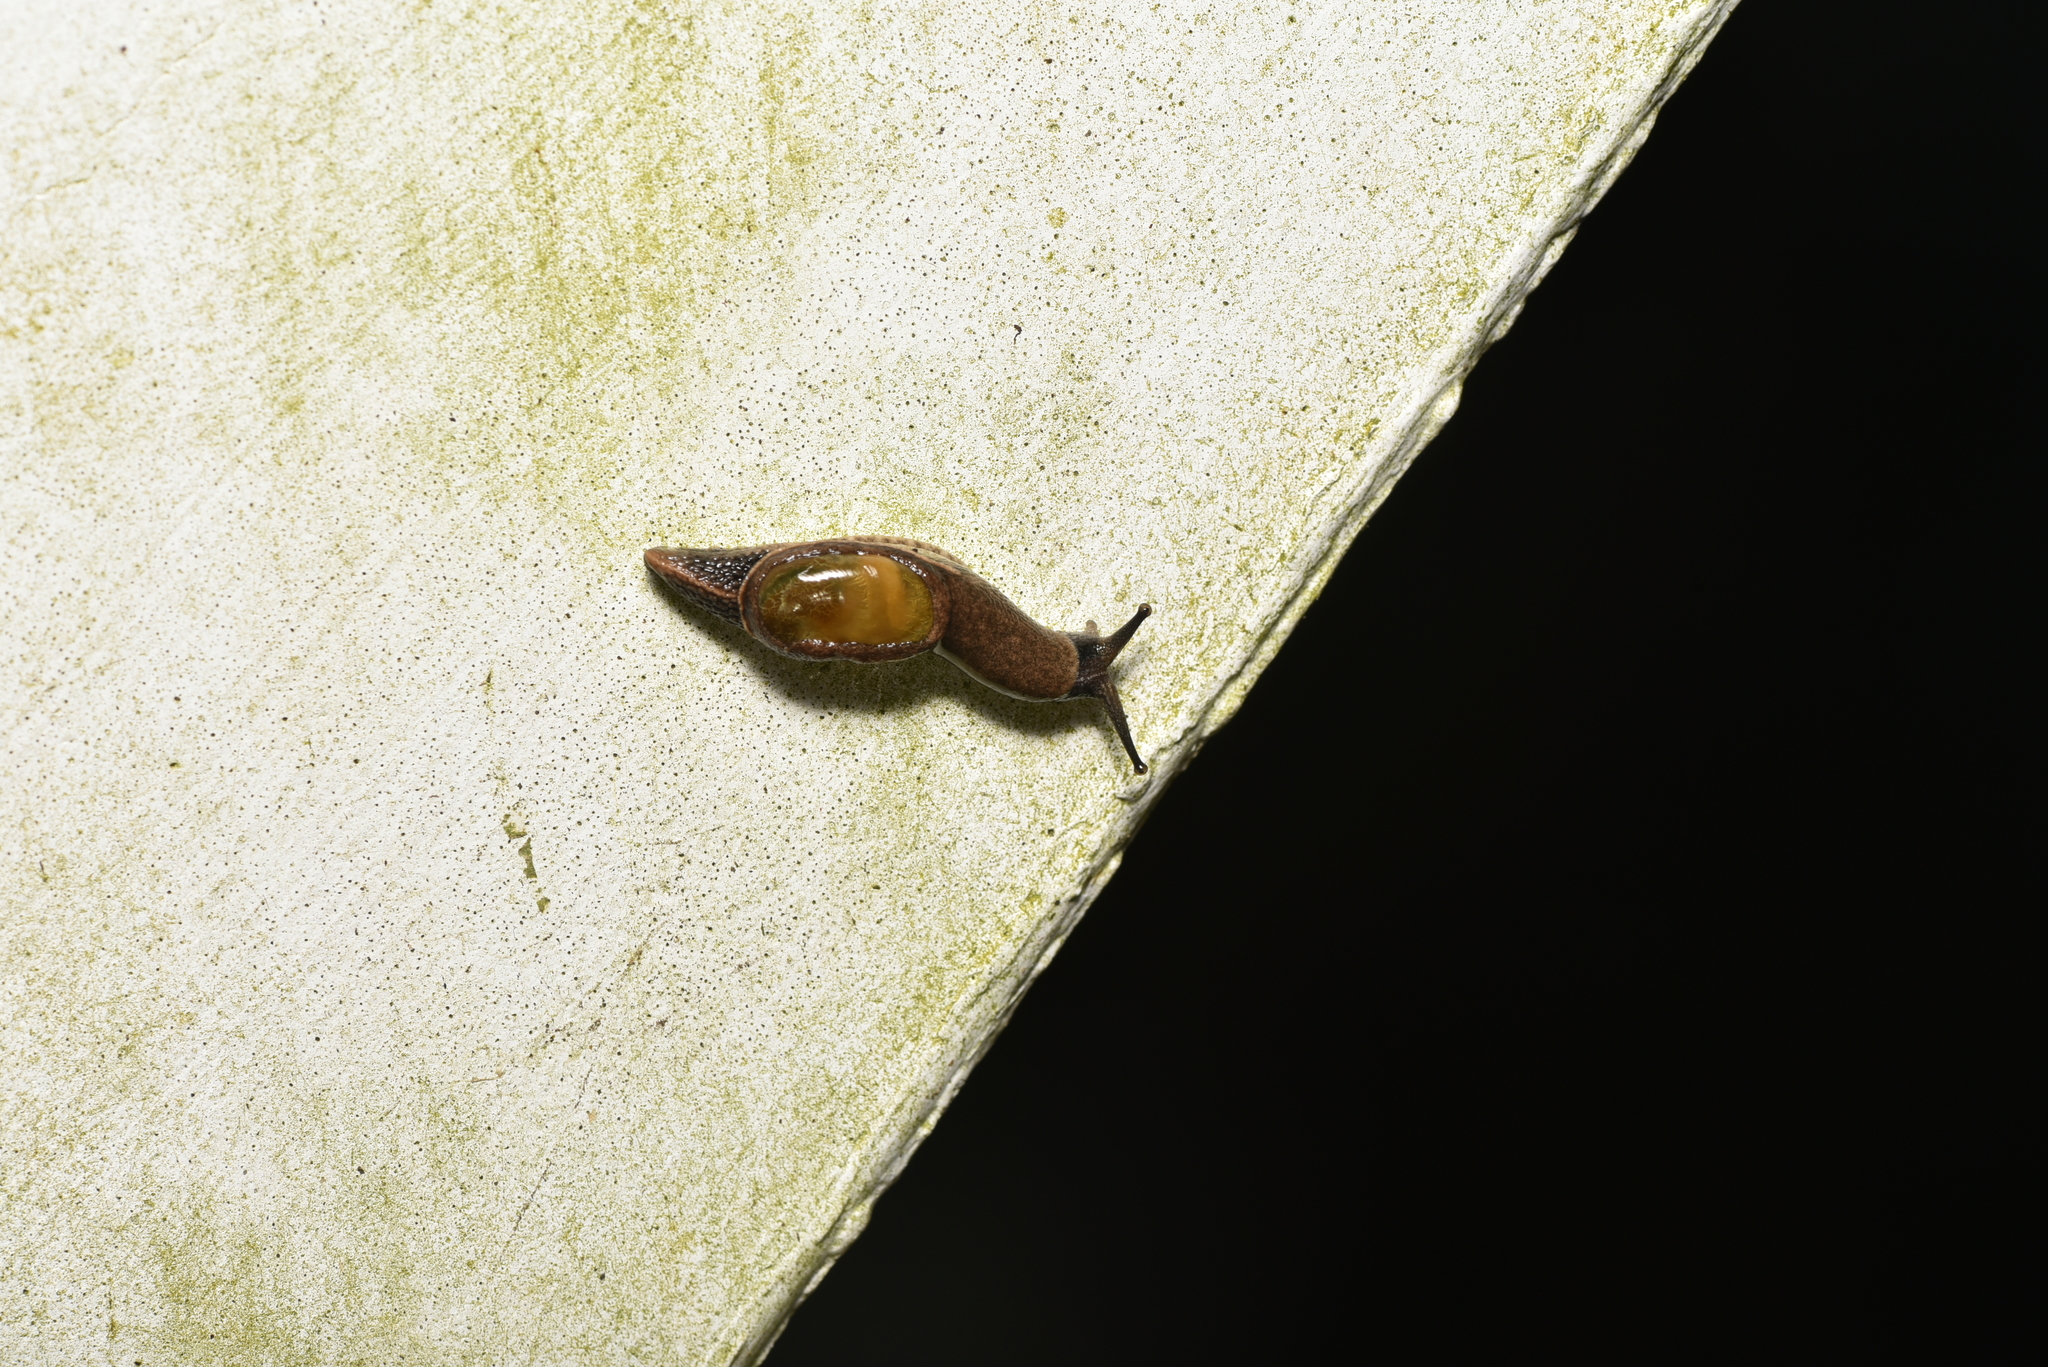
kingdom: Animalia
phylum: Mollusca
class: Gastropoda
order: Stylommatophora
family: Ariophantidae
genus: Parmarion
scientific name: Parmarion martensi
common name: Semi-slug
